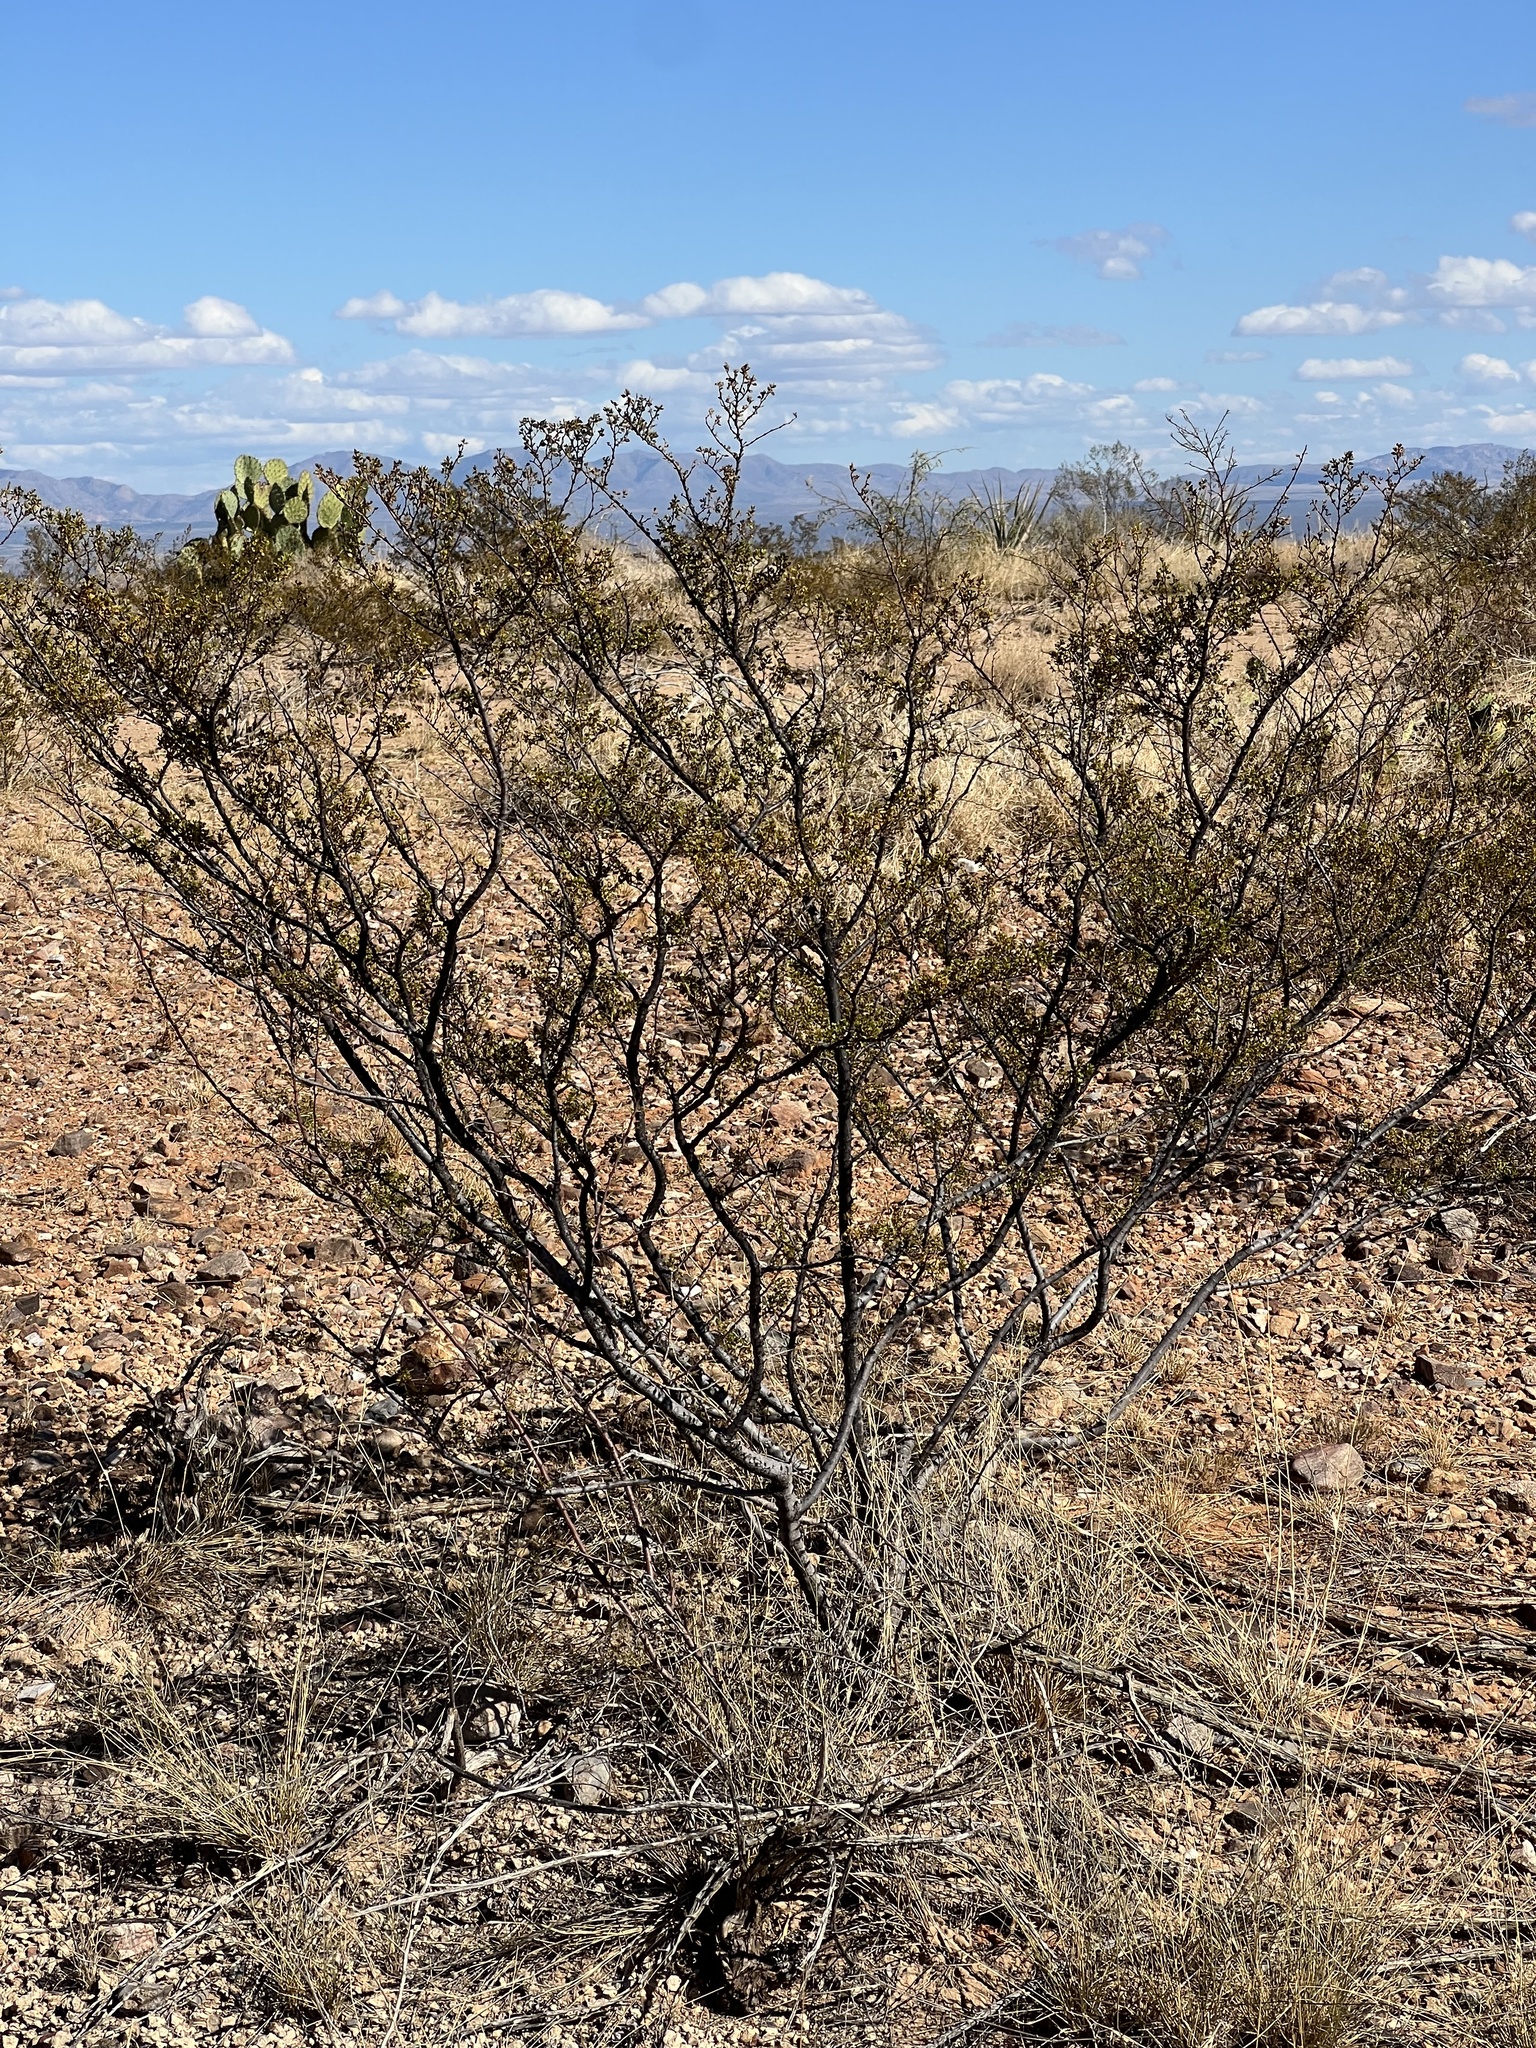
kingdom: Plantae
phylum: Tracheophyta
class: Magnoliopsida
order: Zygophyllales
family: Zygophyllaceae
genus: Larrea
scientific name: Larrea tridentata
